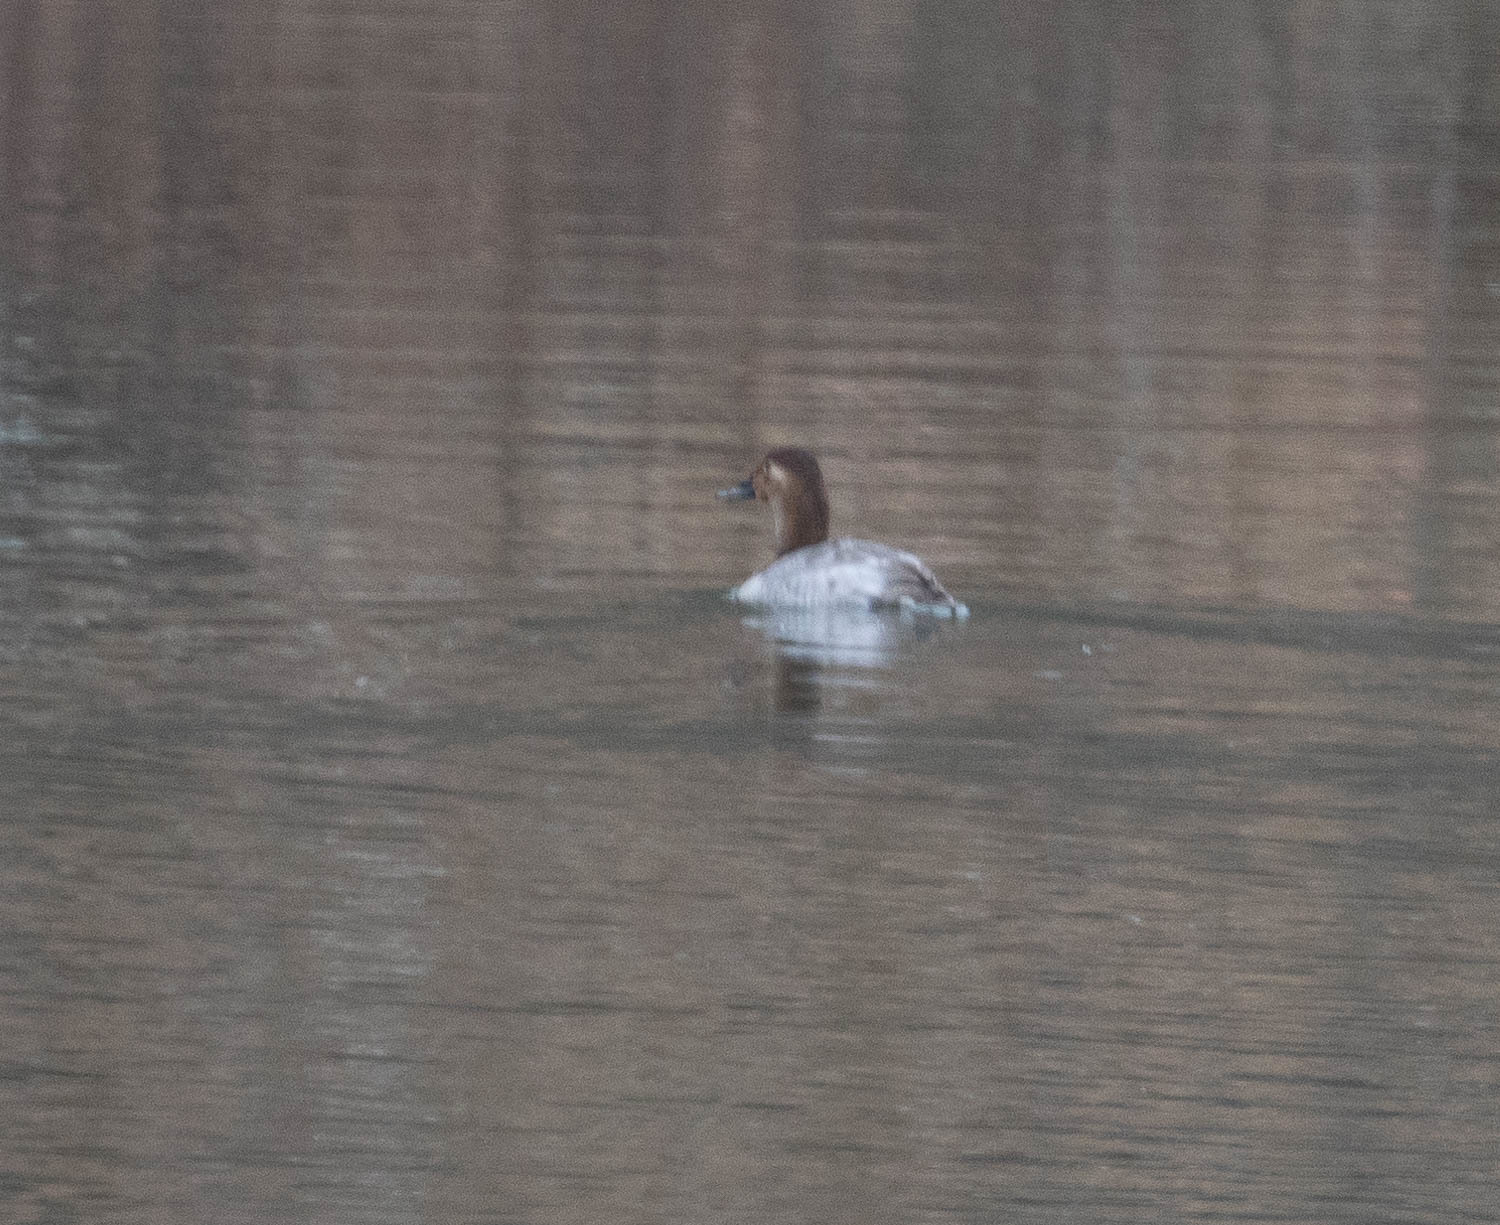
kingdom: Animalia
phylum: Chordata
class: Aves
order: Anseriformes
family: Anatidae
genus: Aythya
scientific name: Aythya valisineria
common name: Canvasback
